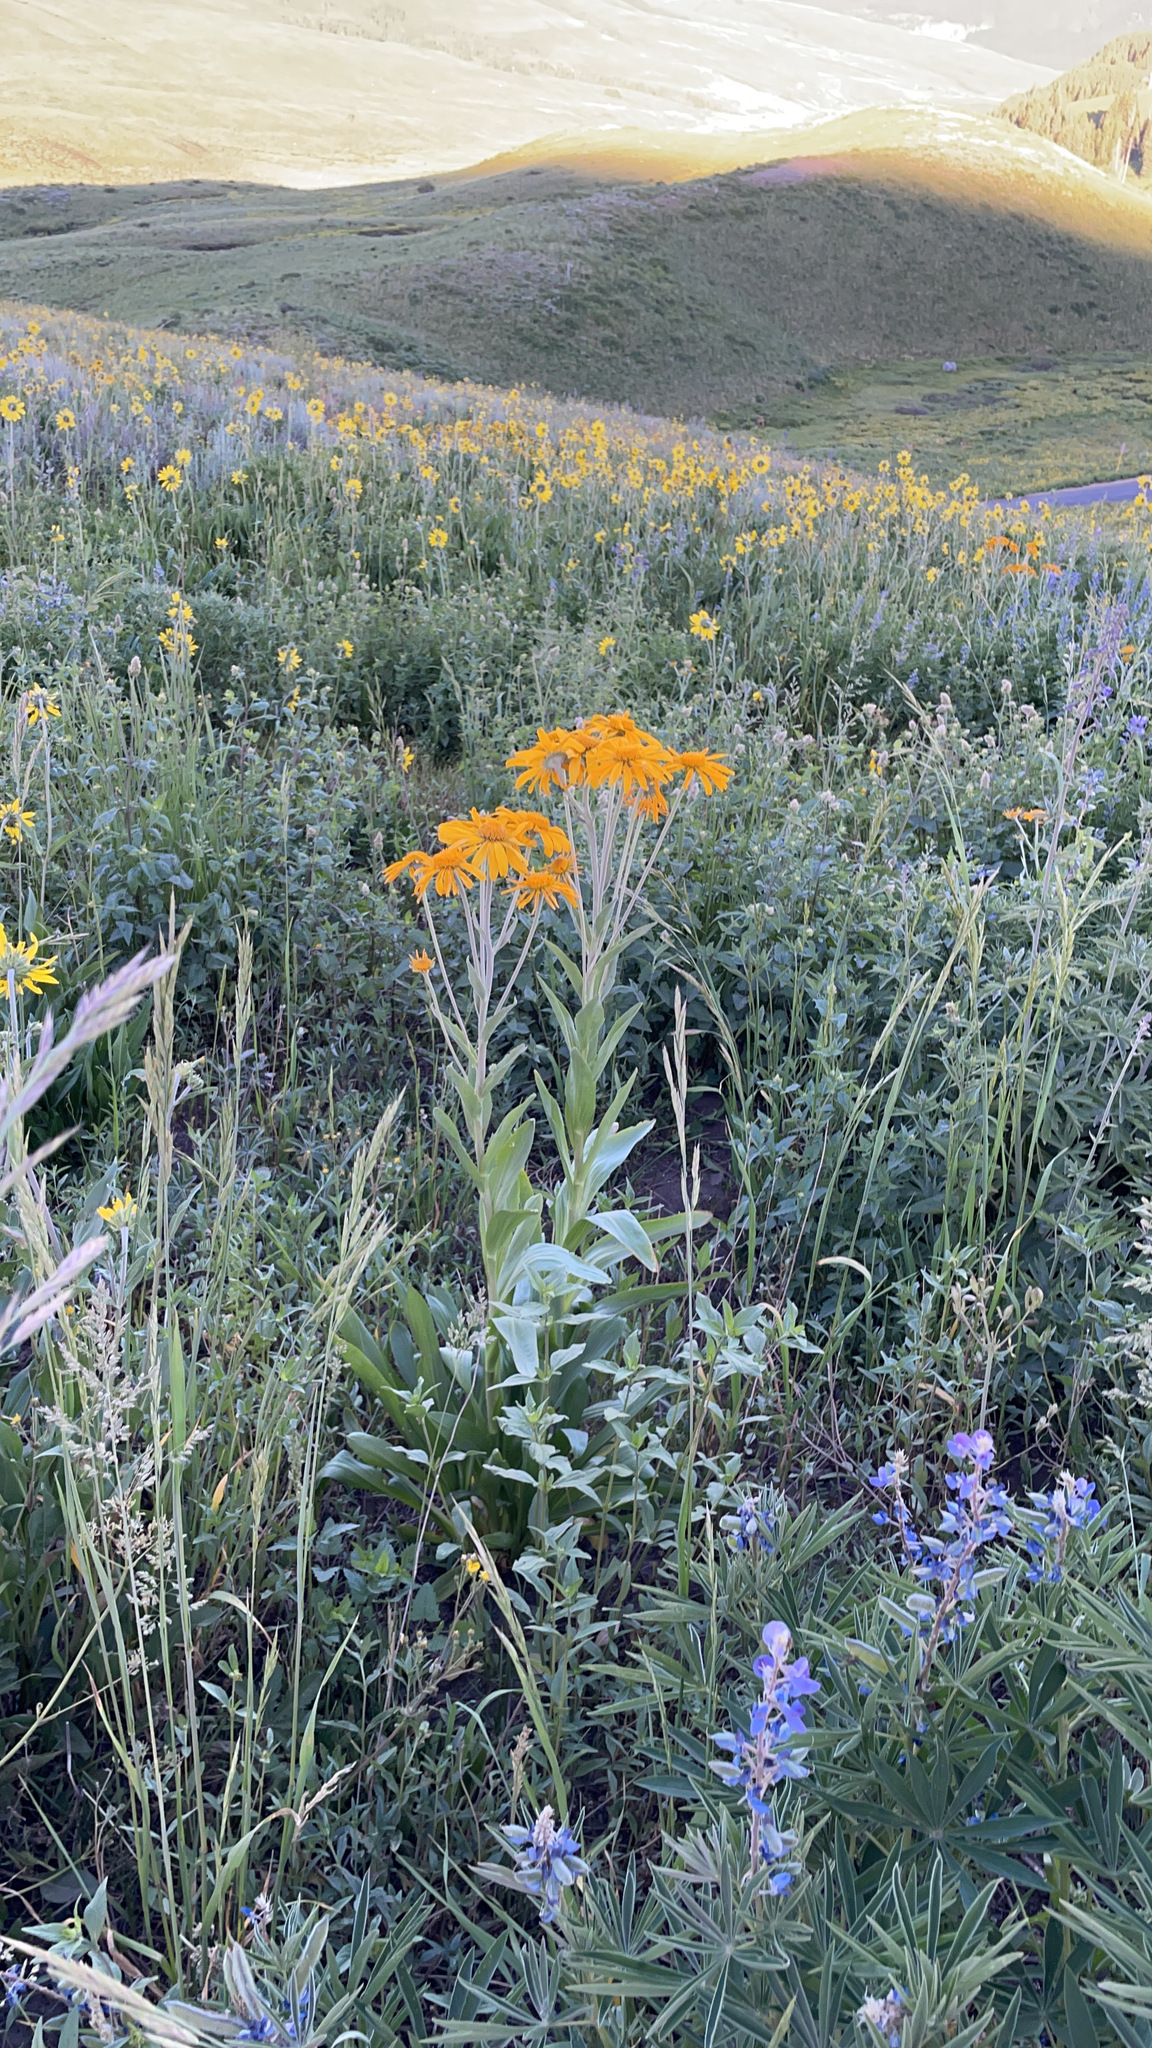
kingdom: Plantae
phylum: Tracheophyta
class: Magnoliopsida
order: Asterales
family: Asteraceae
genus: Hymenoxys
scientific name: Hymenoxys hoopesii
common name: Orange-sneezeweed
